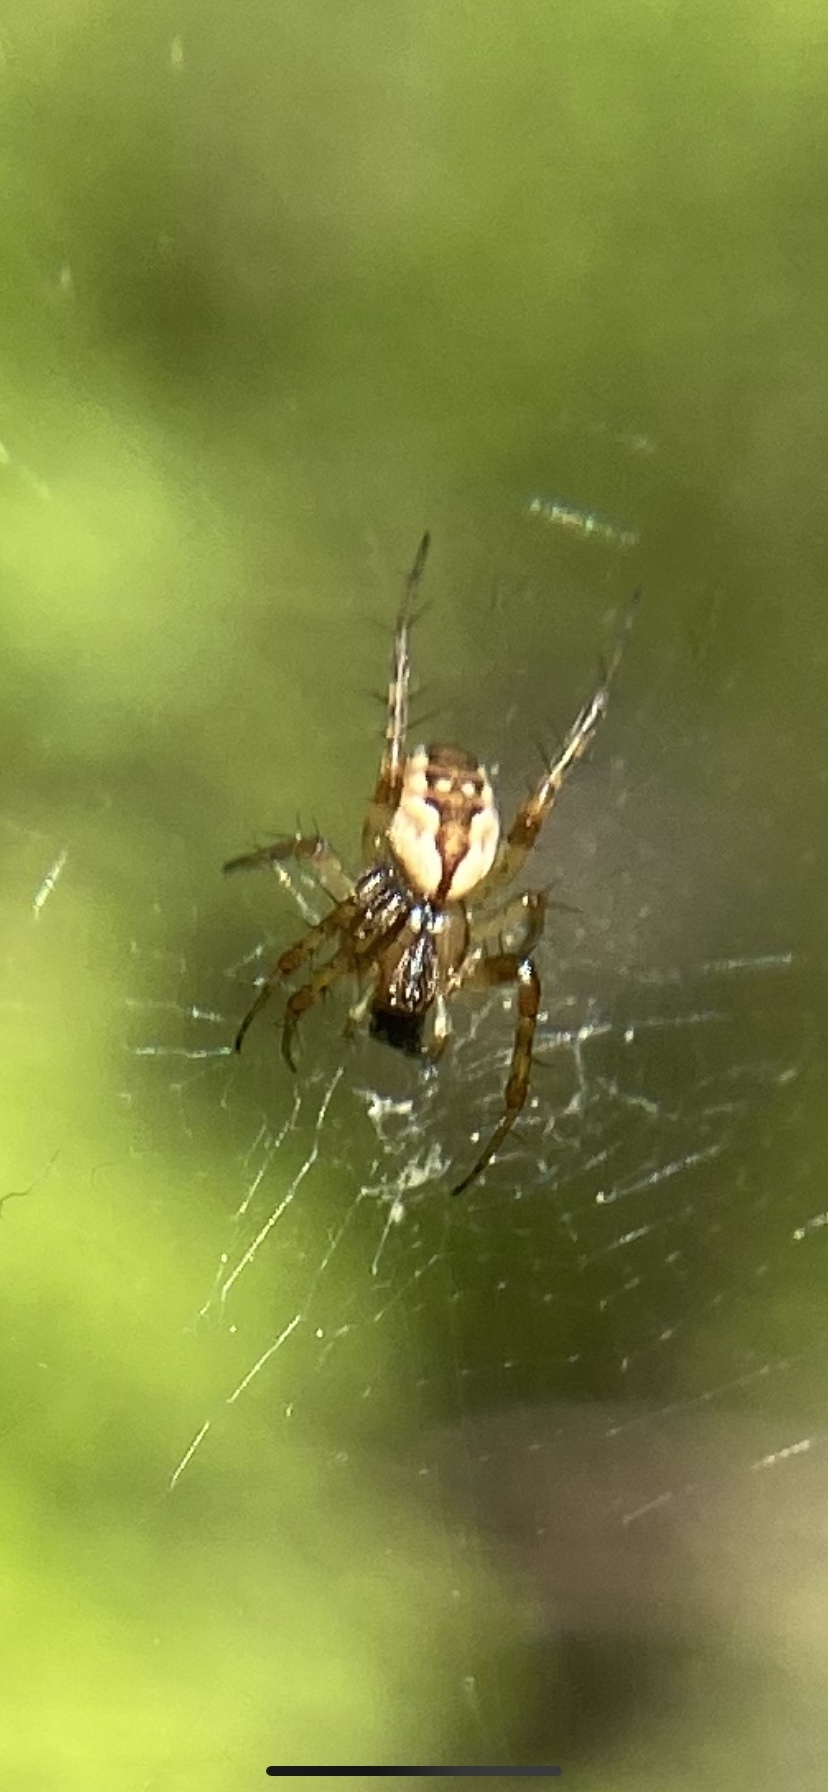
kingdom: Animalia
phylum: Arthropoda
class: Arachnida
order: Araneae
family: Araneidae
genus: Mangora
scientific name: Mangora placida
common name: Tuft-legged orbweaver
